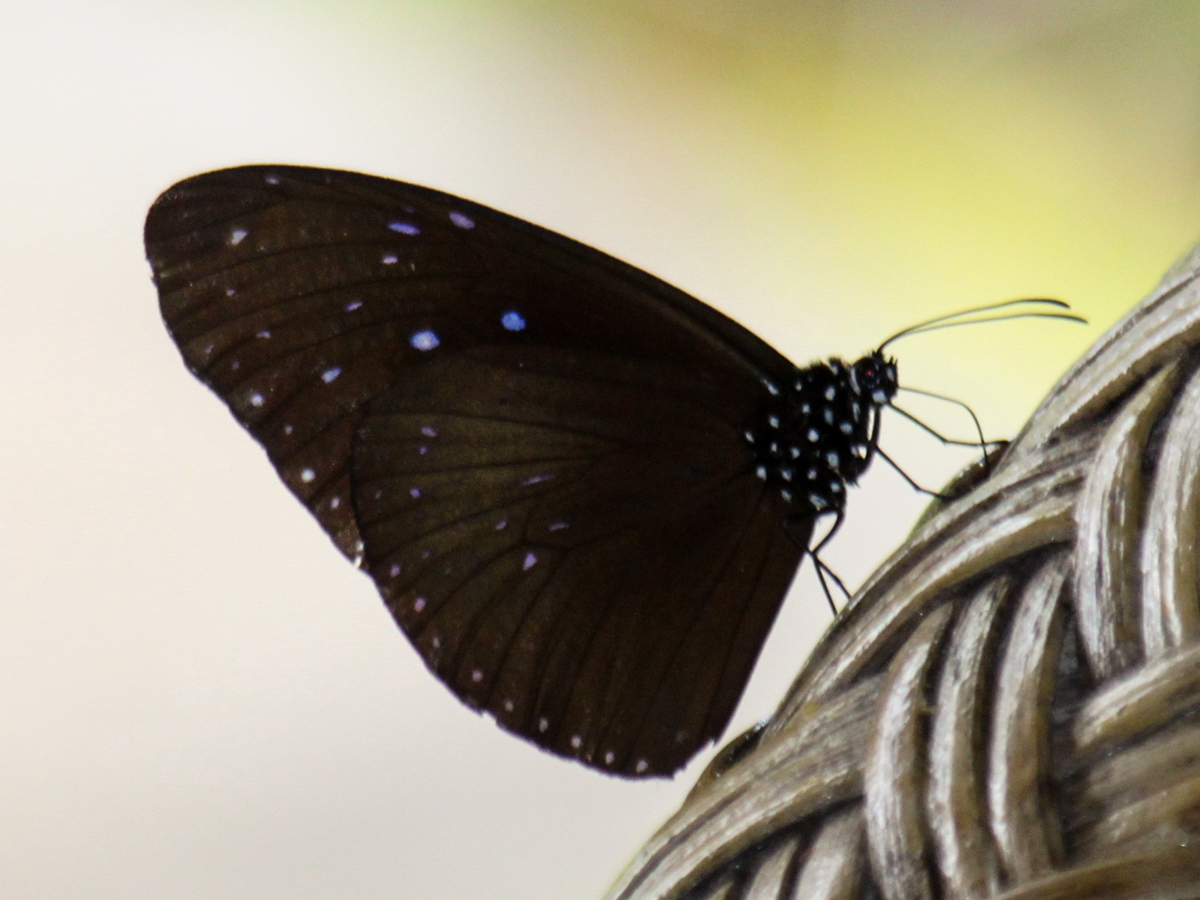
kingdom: Animalia
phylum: Arthropoda
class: Insecta
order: Lepidoptera
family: Nymphalidae
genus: Euploea
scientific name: Euploea mulciber
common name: Striped blue crow butterfly
